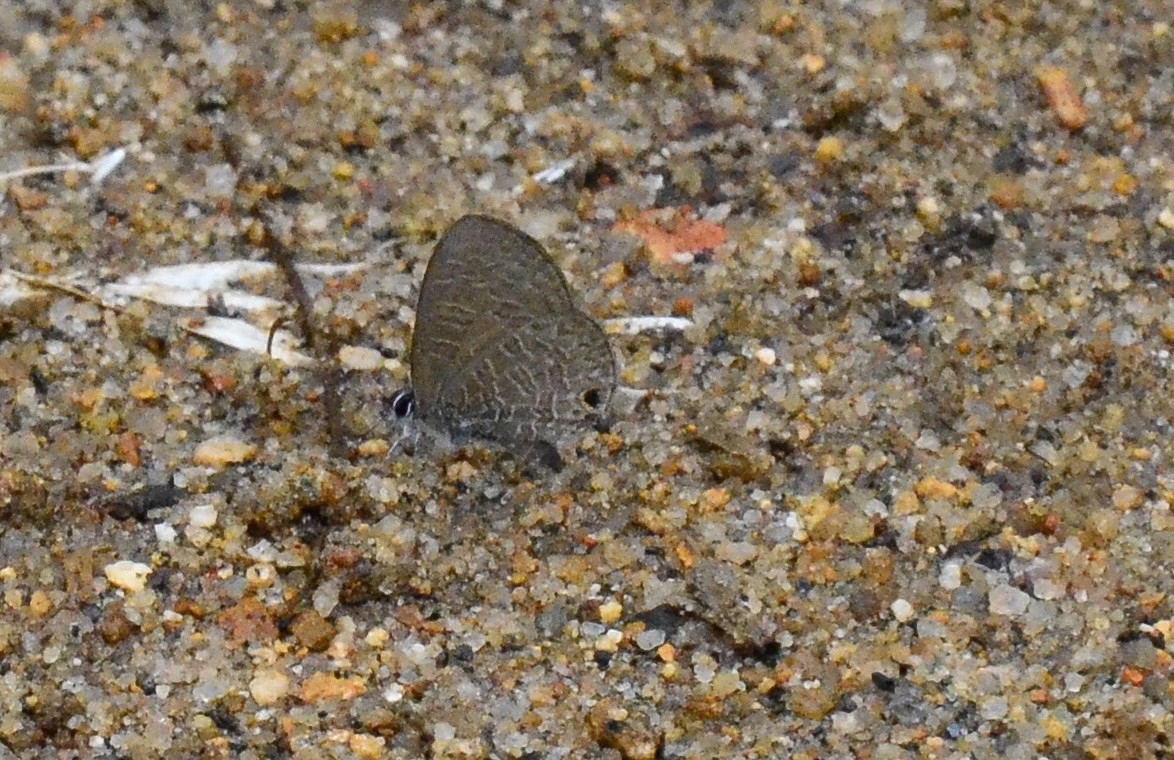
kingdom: Animalia
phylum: Arthropoda
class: Insecta
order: Lepidoptera
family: Lycaenidae
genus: Prosotas
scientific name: Prosotas nora
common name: Common line blue
